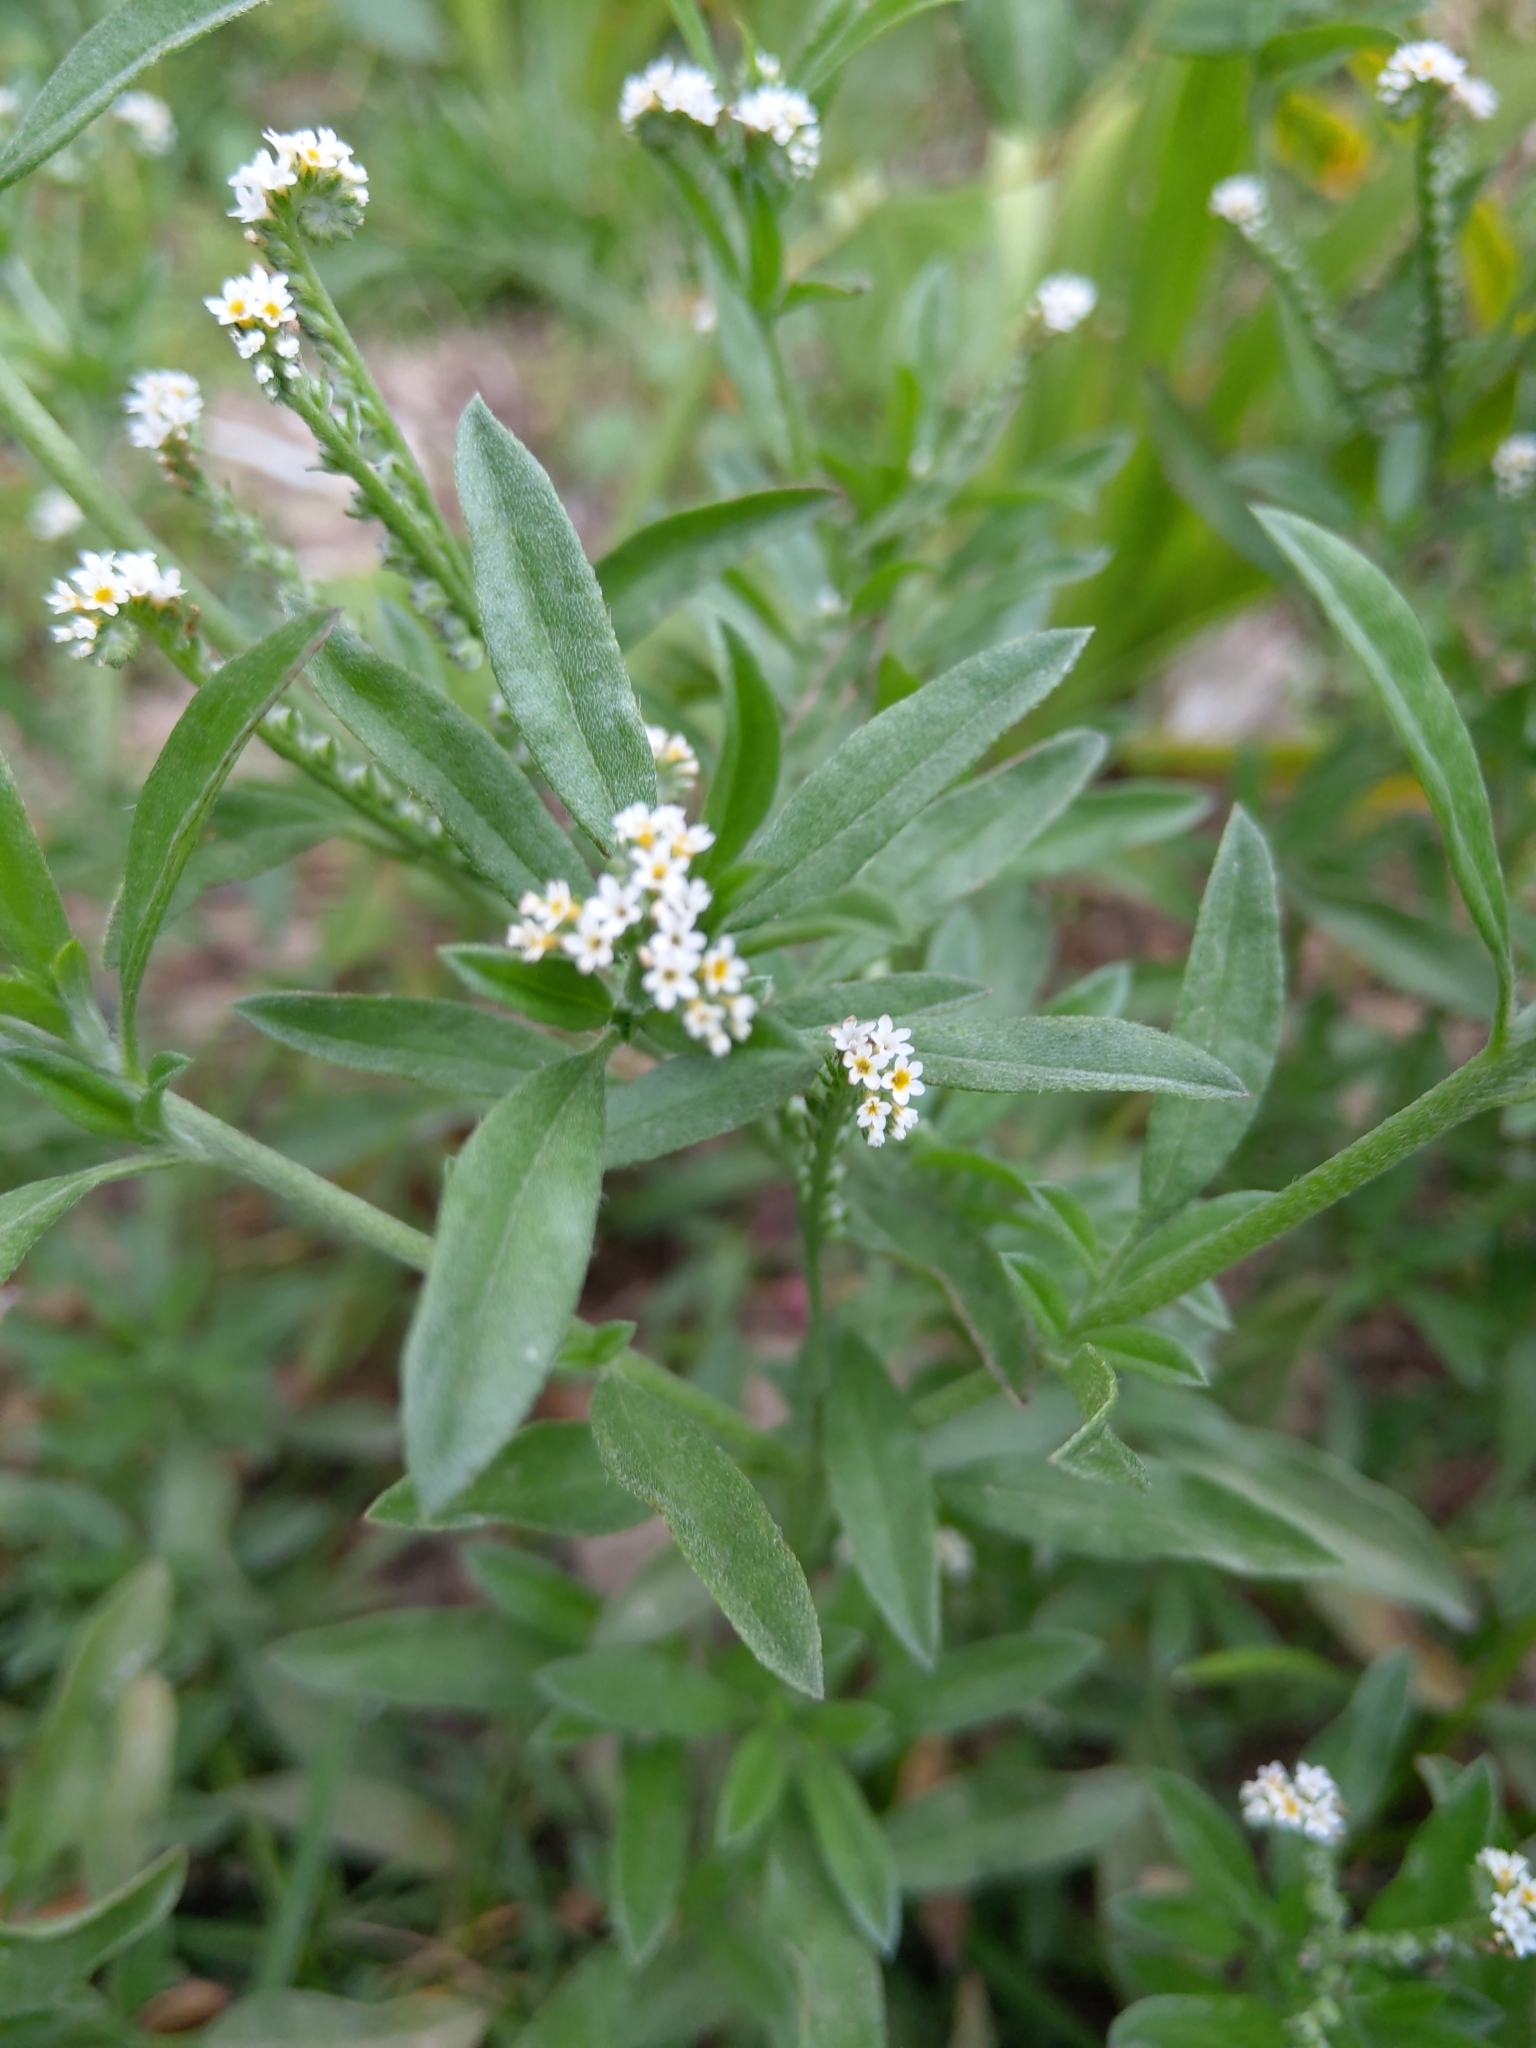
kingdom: Plantae
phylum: Tracheophyta
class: Magnoliopsida
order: Boraginales
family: Heliotropiaceae
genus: Euploca
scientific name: Euploca procumbens
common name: Fourspike heliotrope
